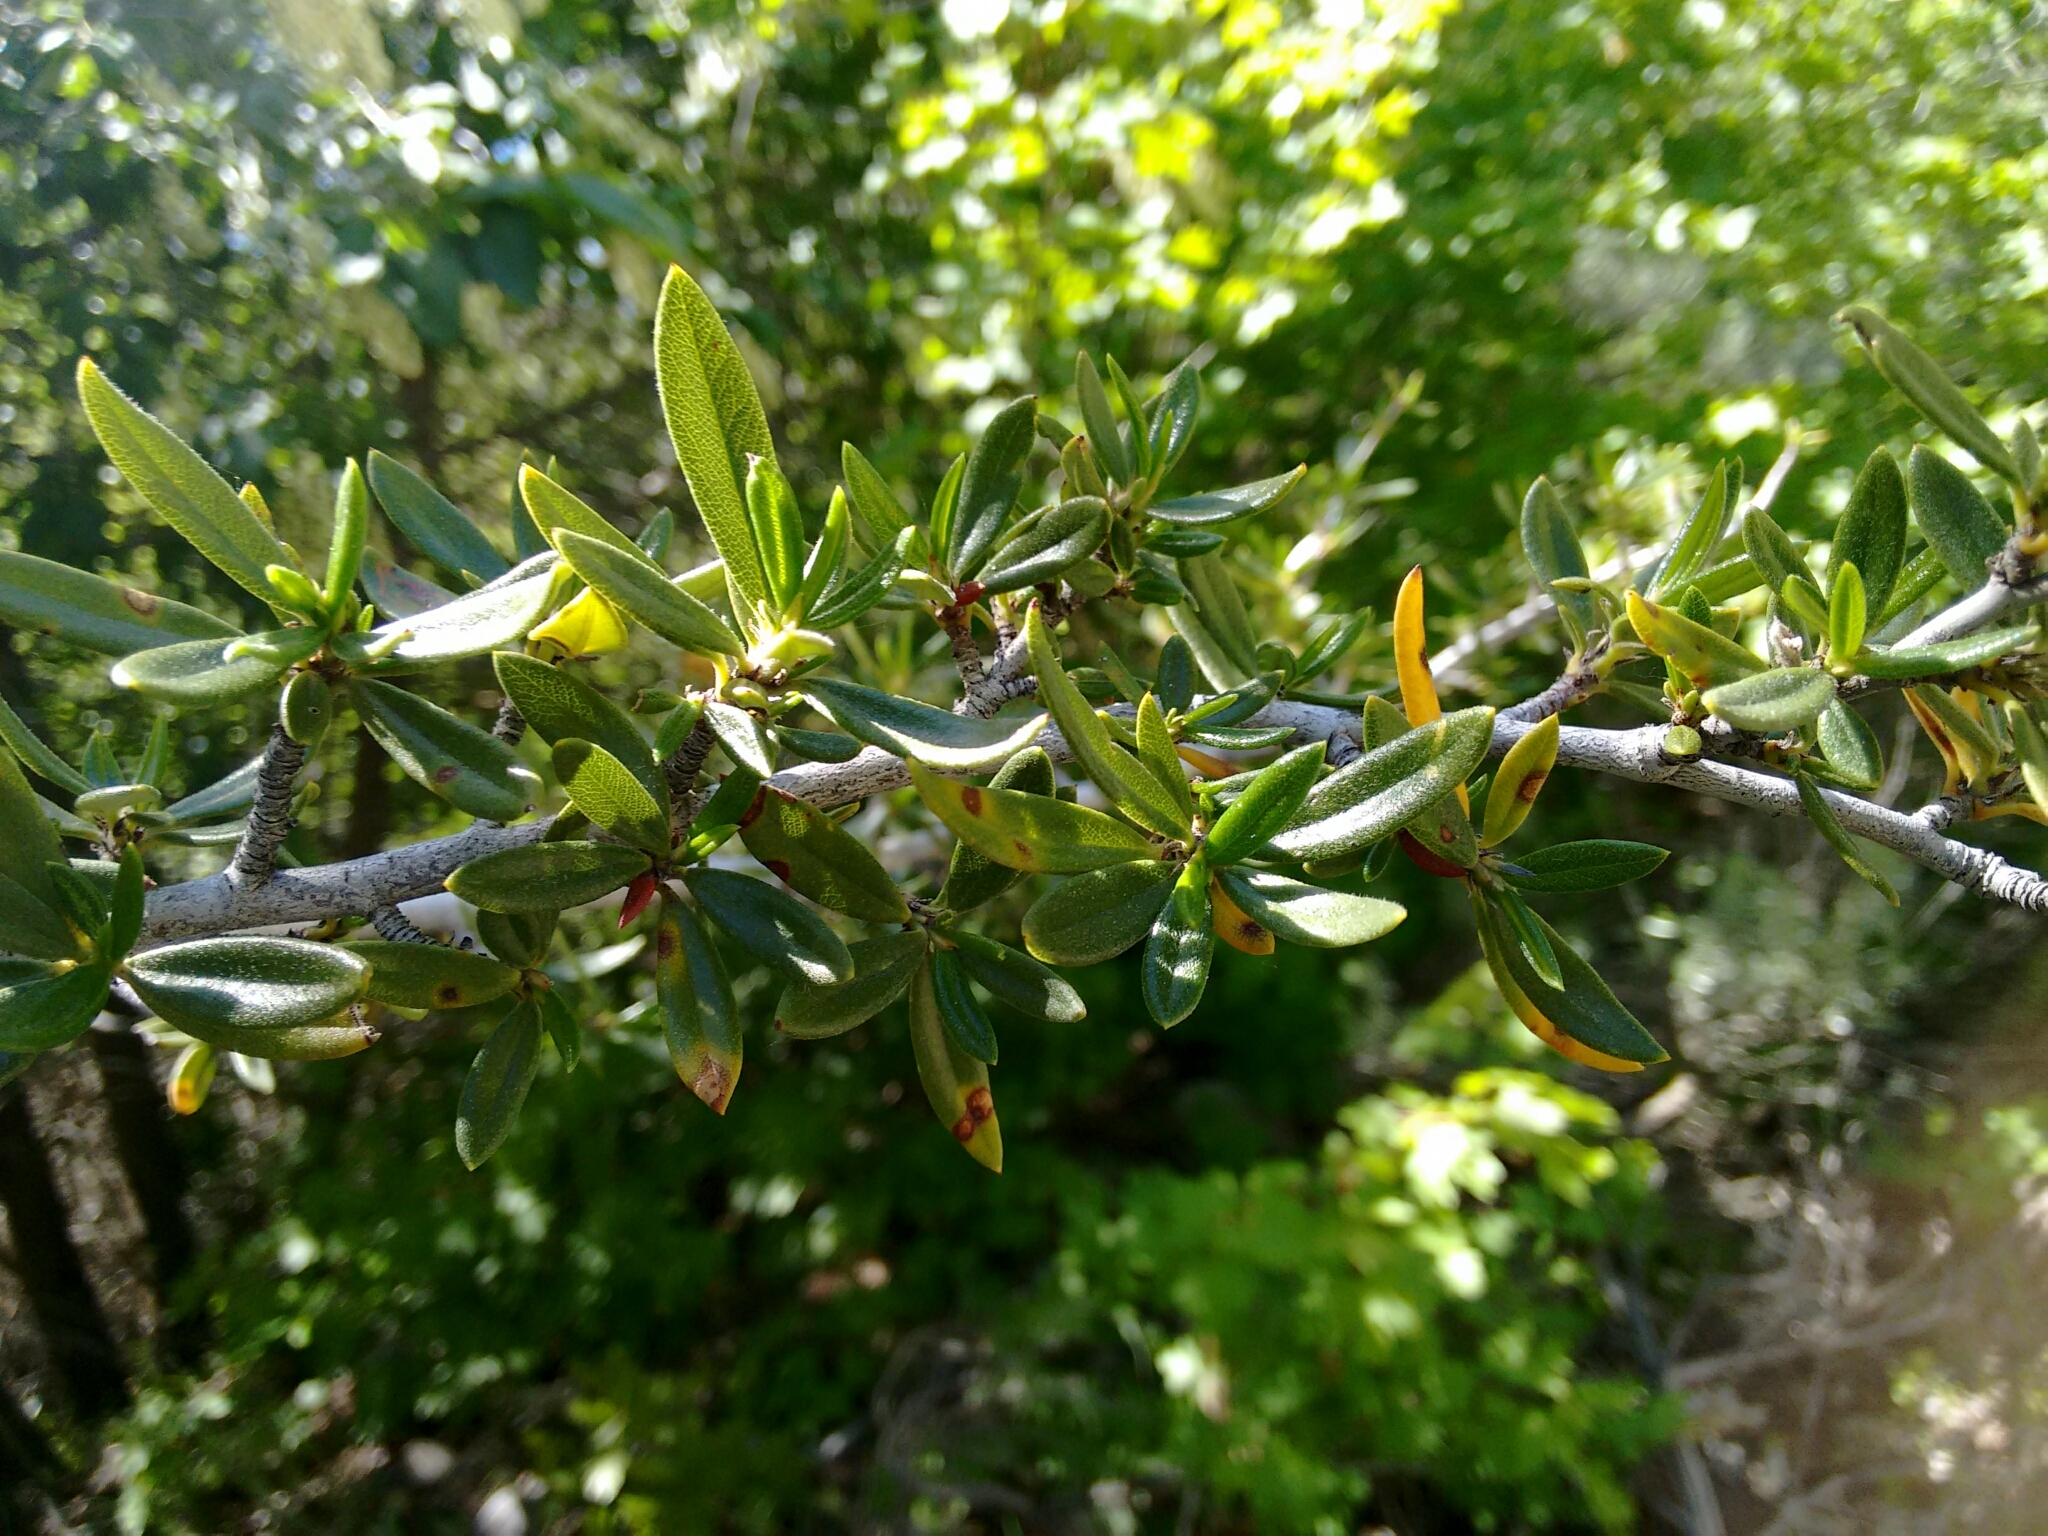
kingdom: Plantae
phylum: Tracheophyta
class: Magnoliopsida
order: Rosales
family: Rosaceae
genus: Cercocarpus
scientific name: Cercocarpus ledifolius
